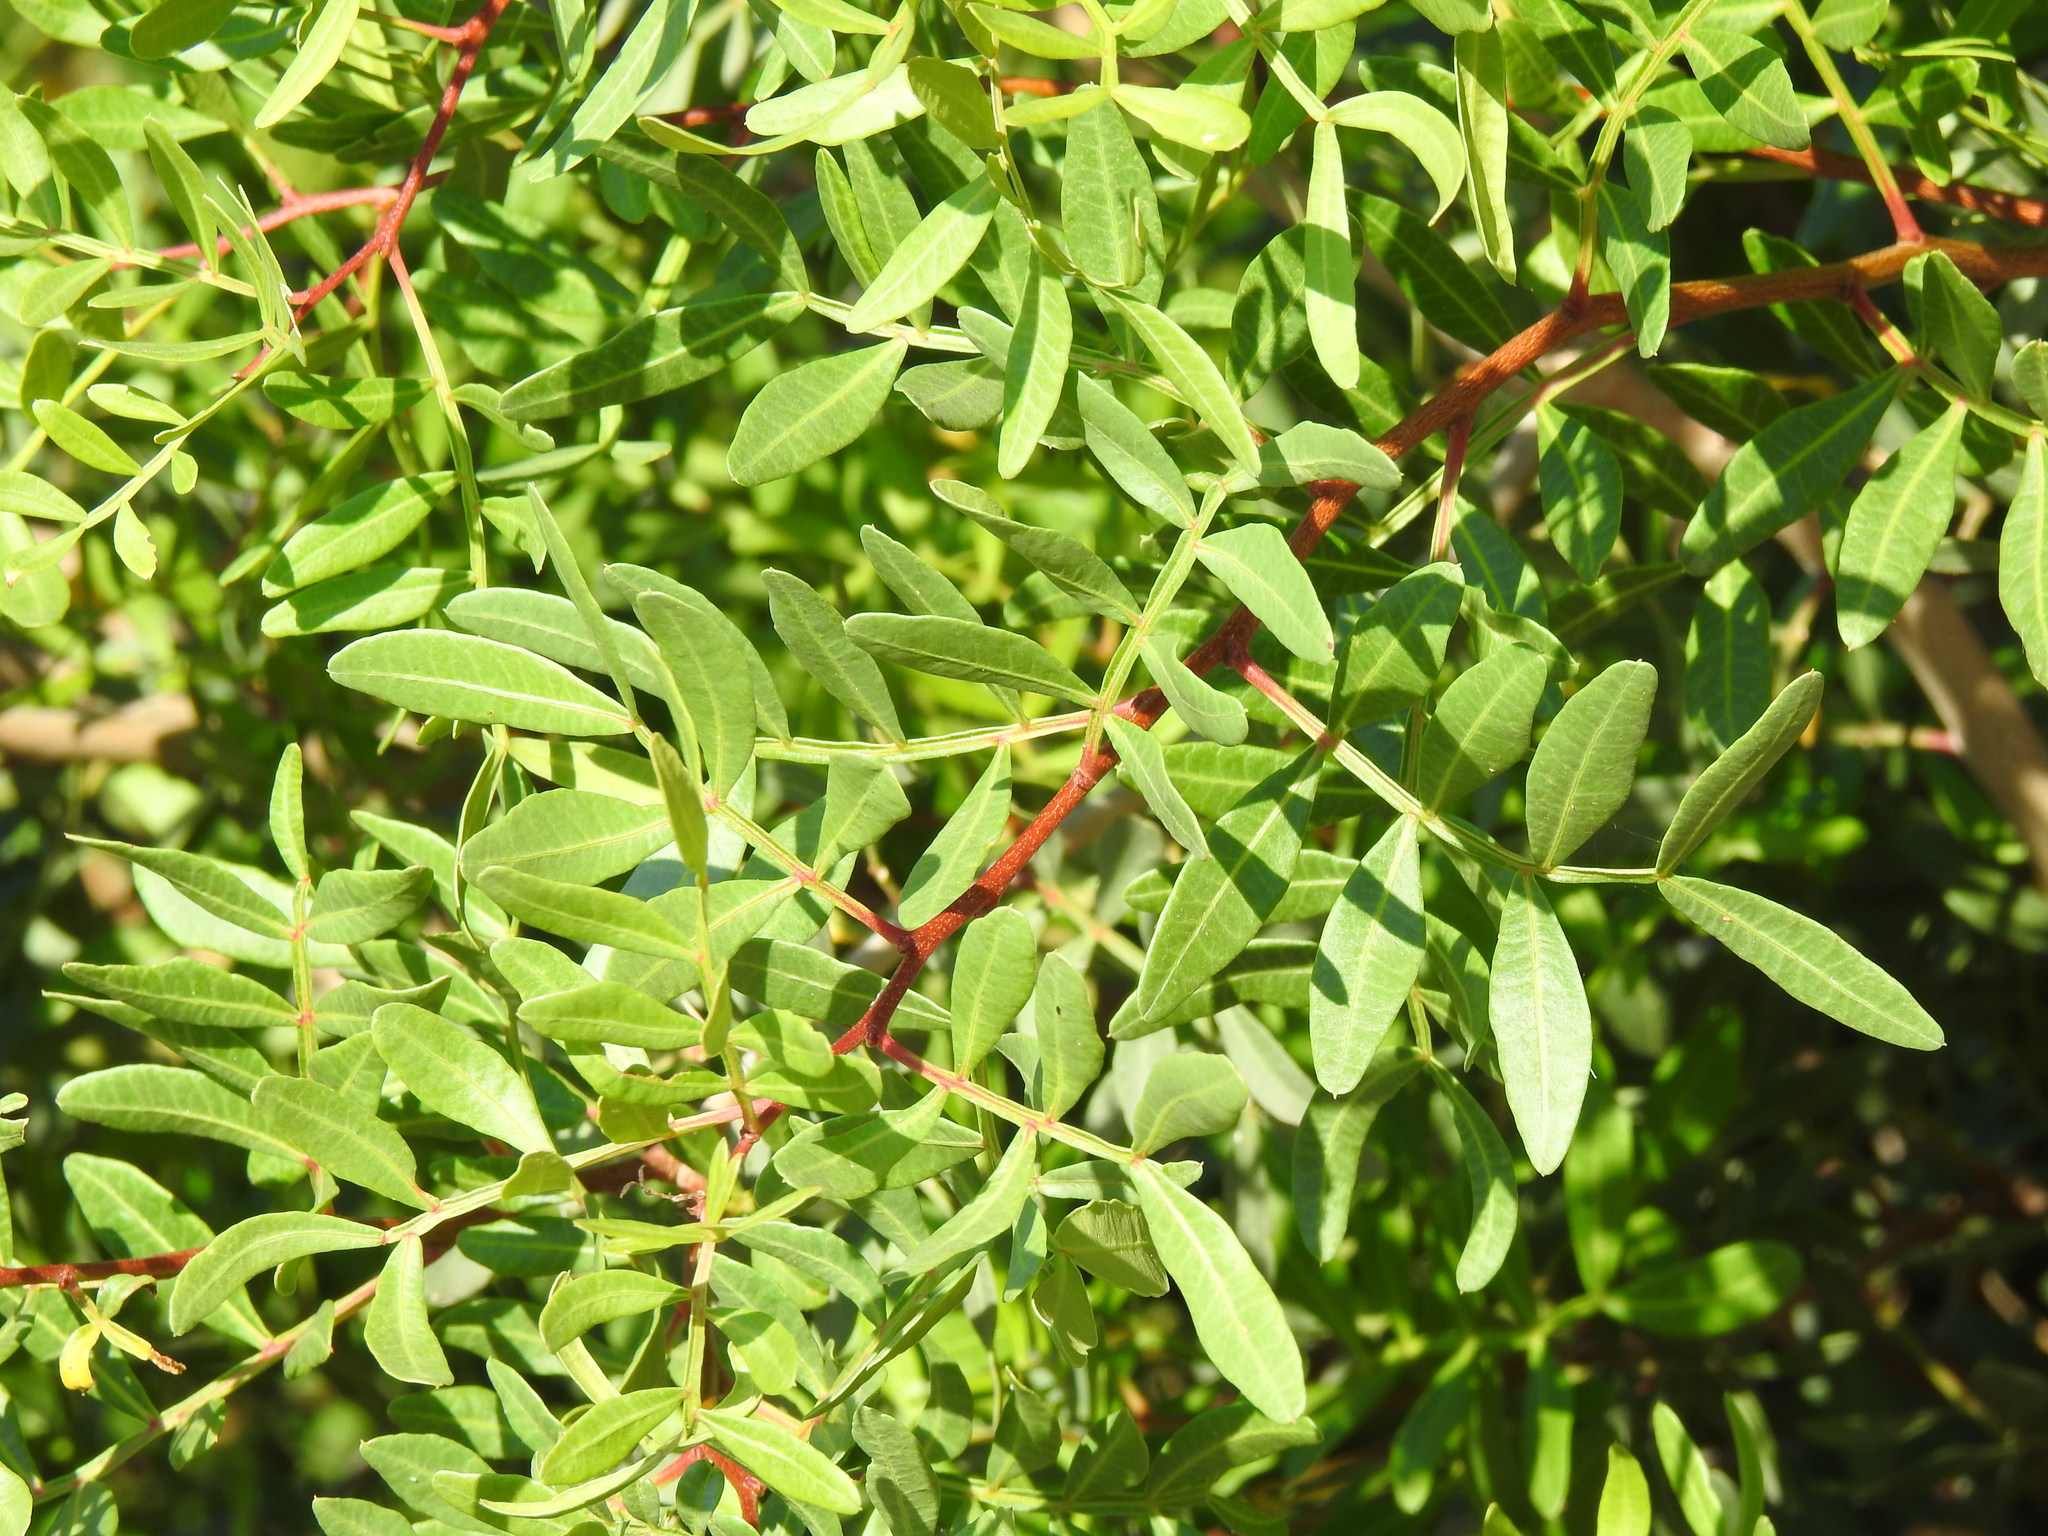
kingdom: Plantae
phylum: Tracheophyta
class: Magnoliopsida
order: Sapindales
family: Anacardiaceae
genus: Pistacia
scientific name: Pistacia lentiscus
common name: Lentisk
